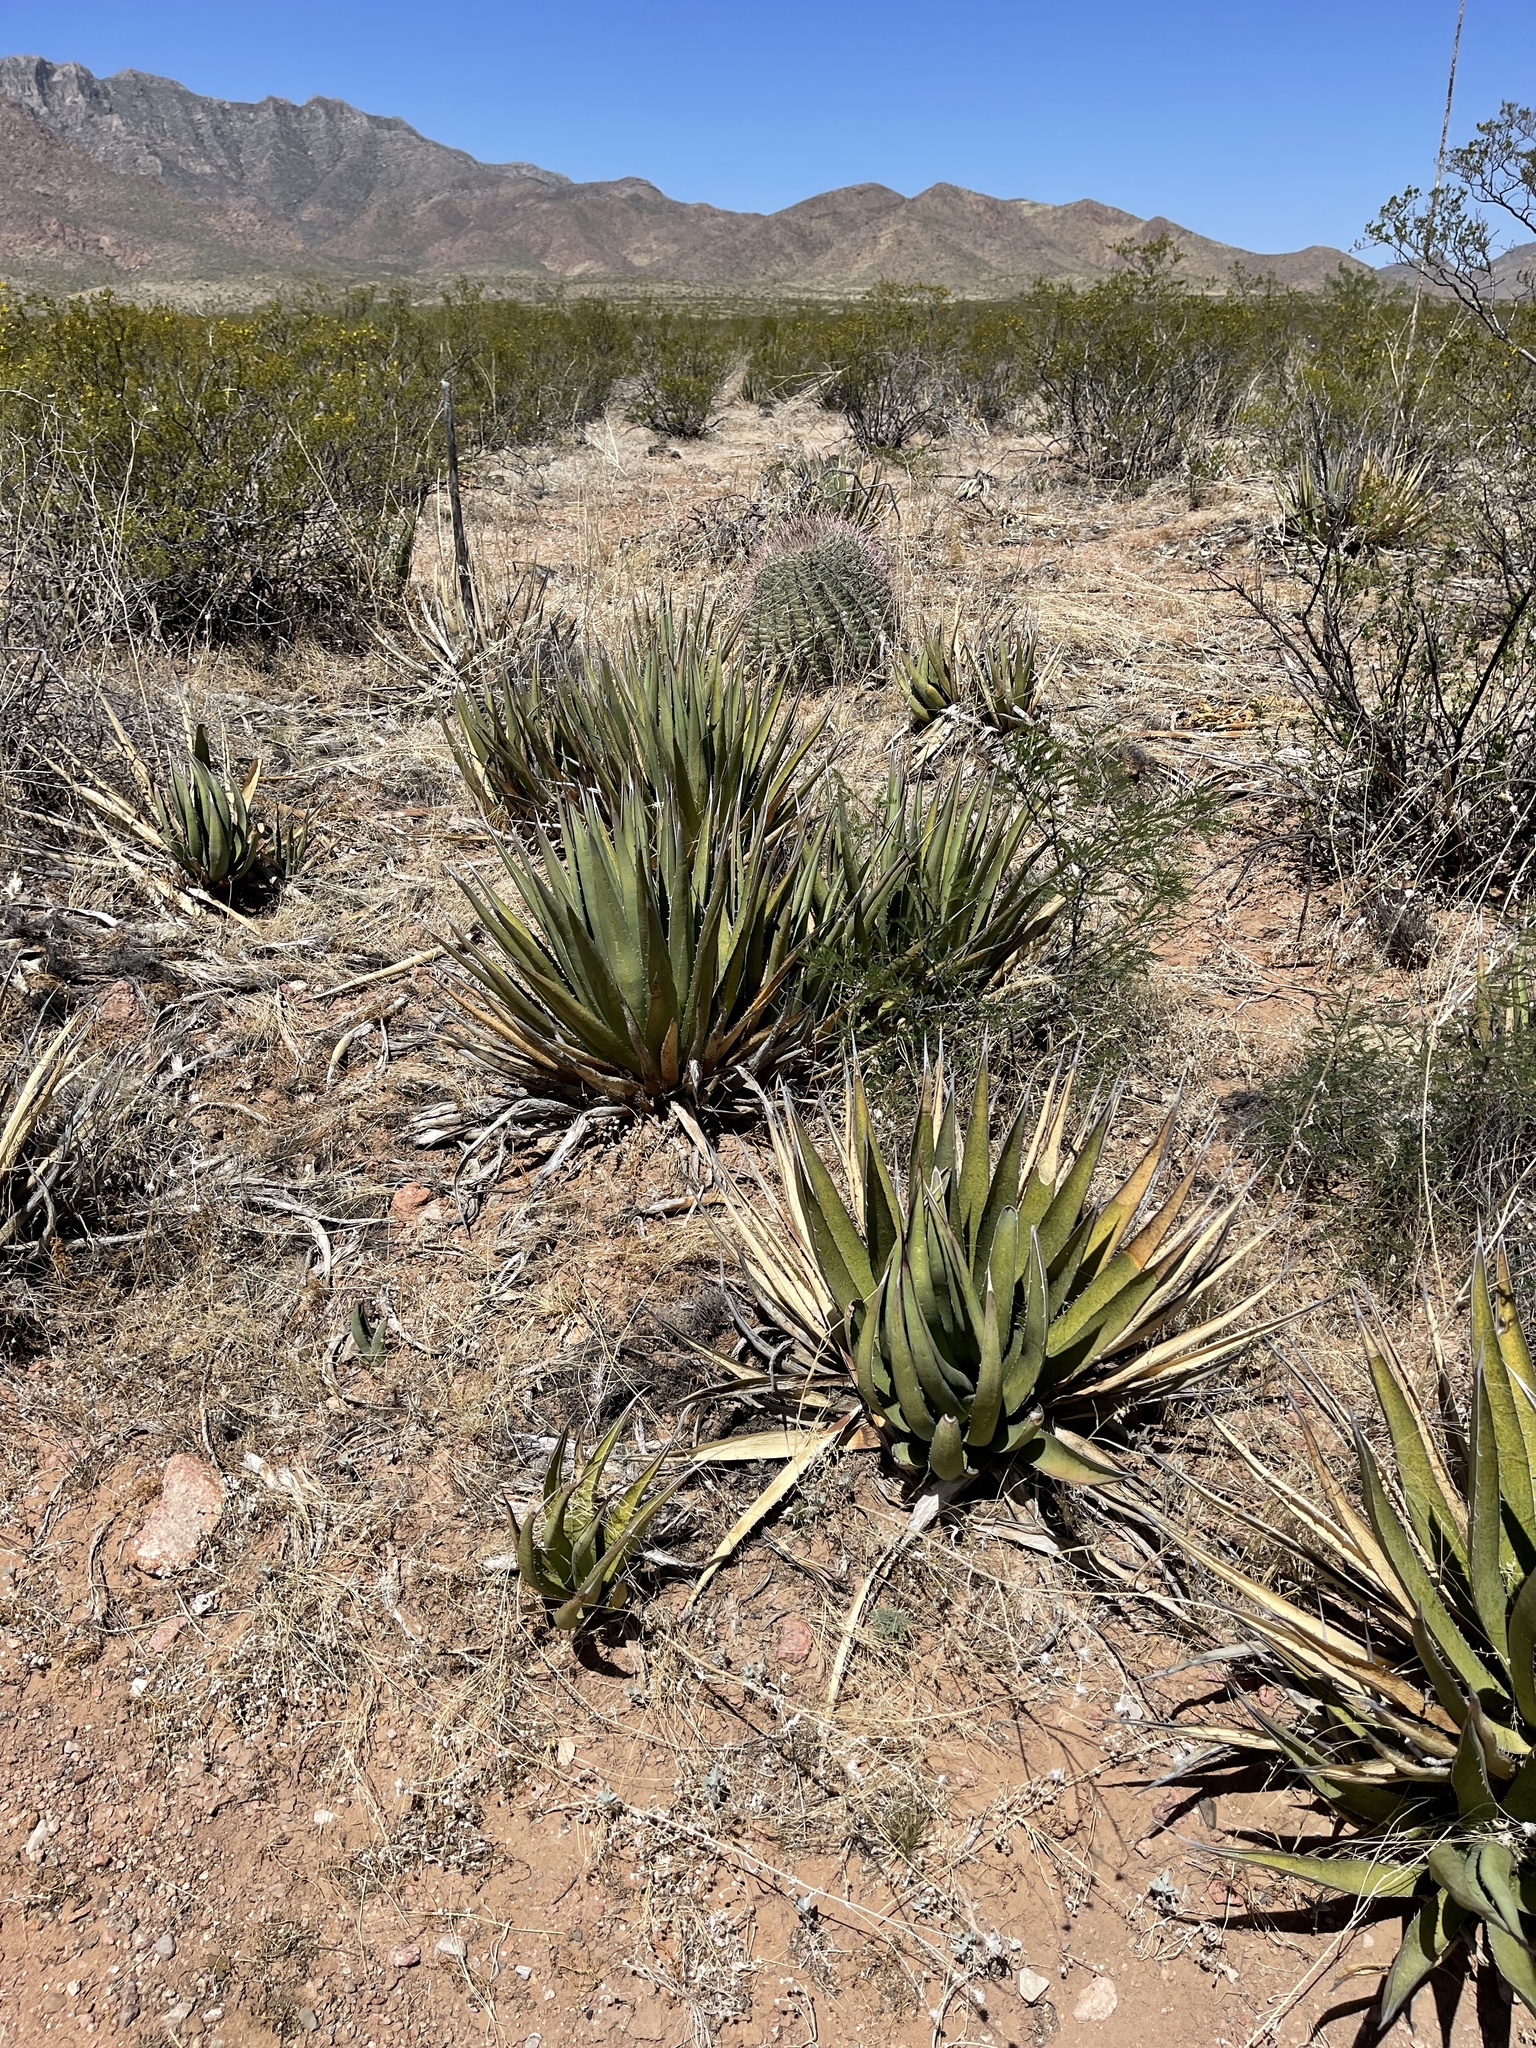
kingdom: Plantae
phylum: Tracheophyta
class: Liliopsida
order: Asparagales
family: Asparagaceae
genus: Agave
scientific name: Agave lechuguilla
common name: Lecheguilla agave
